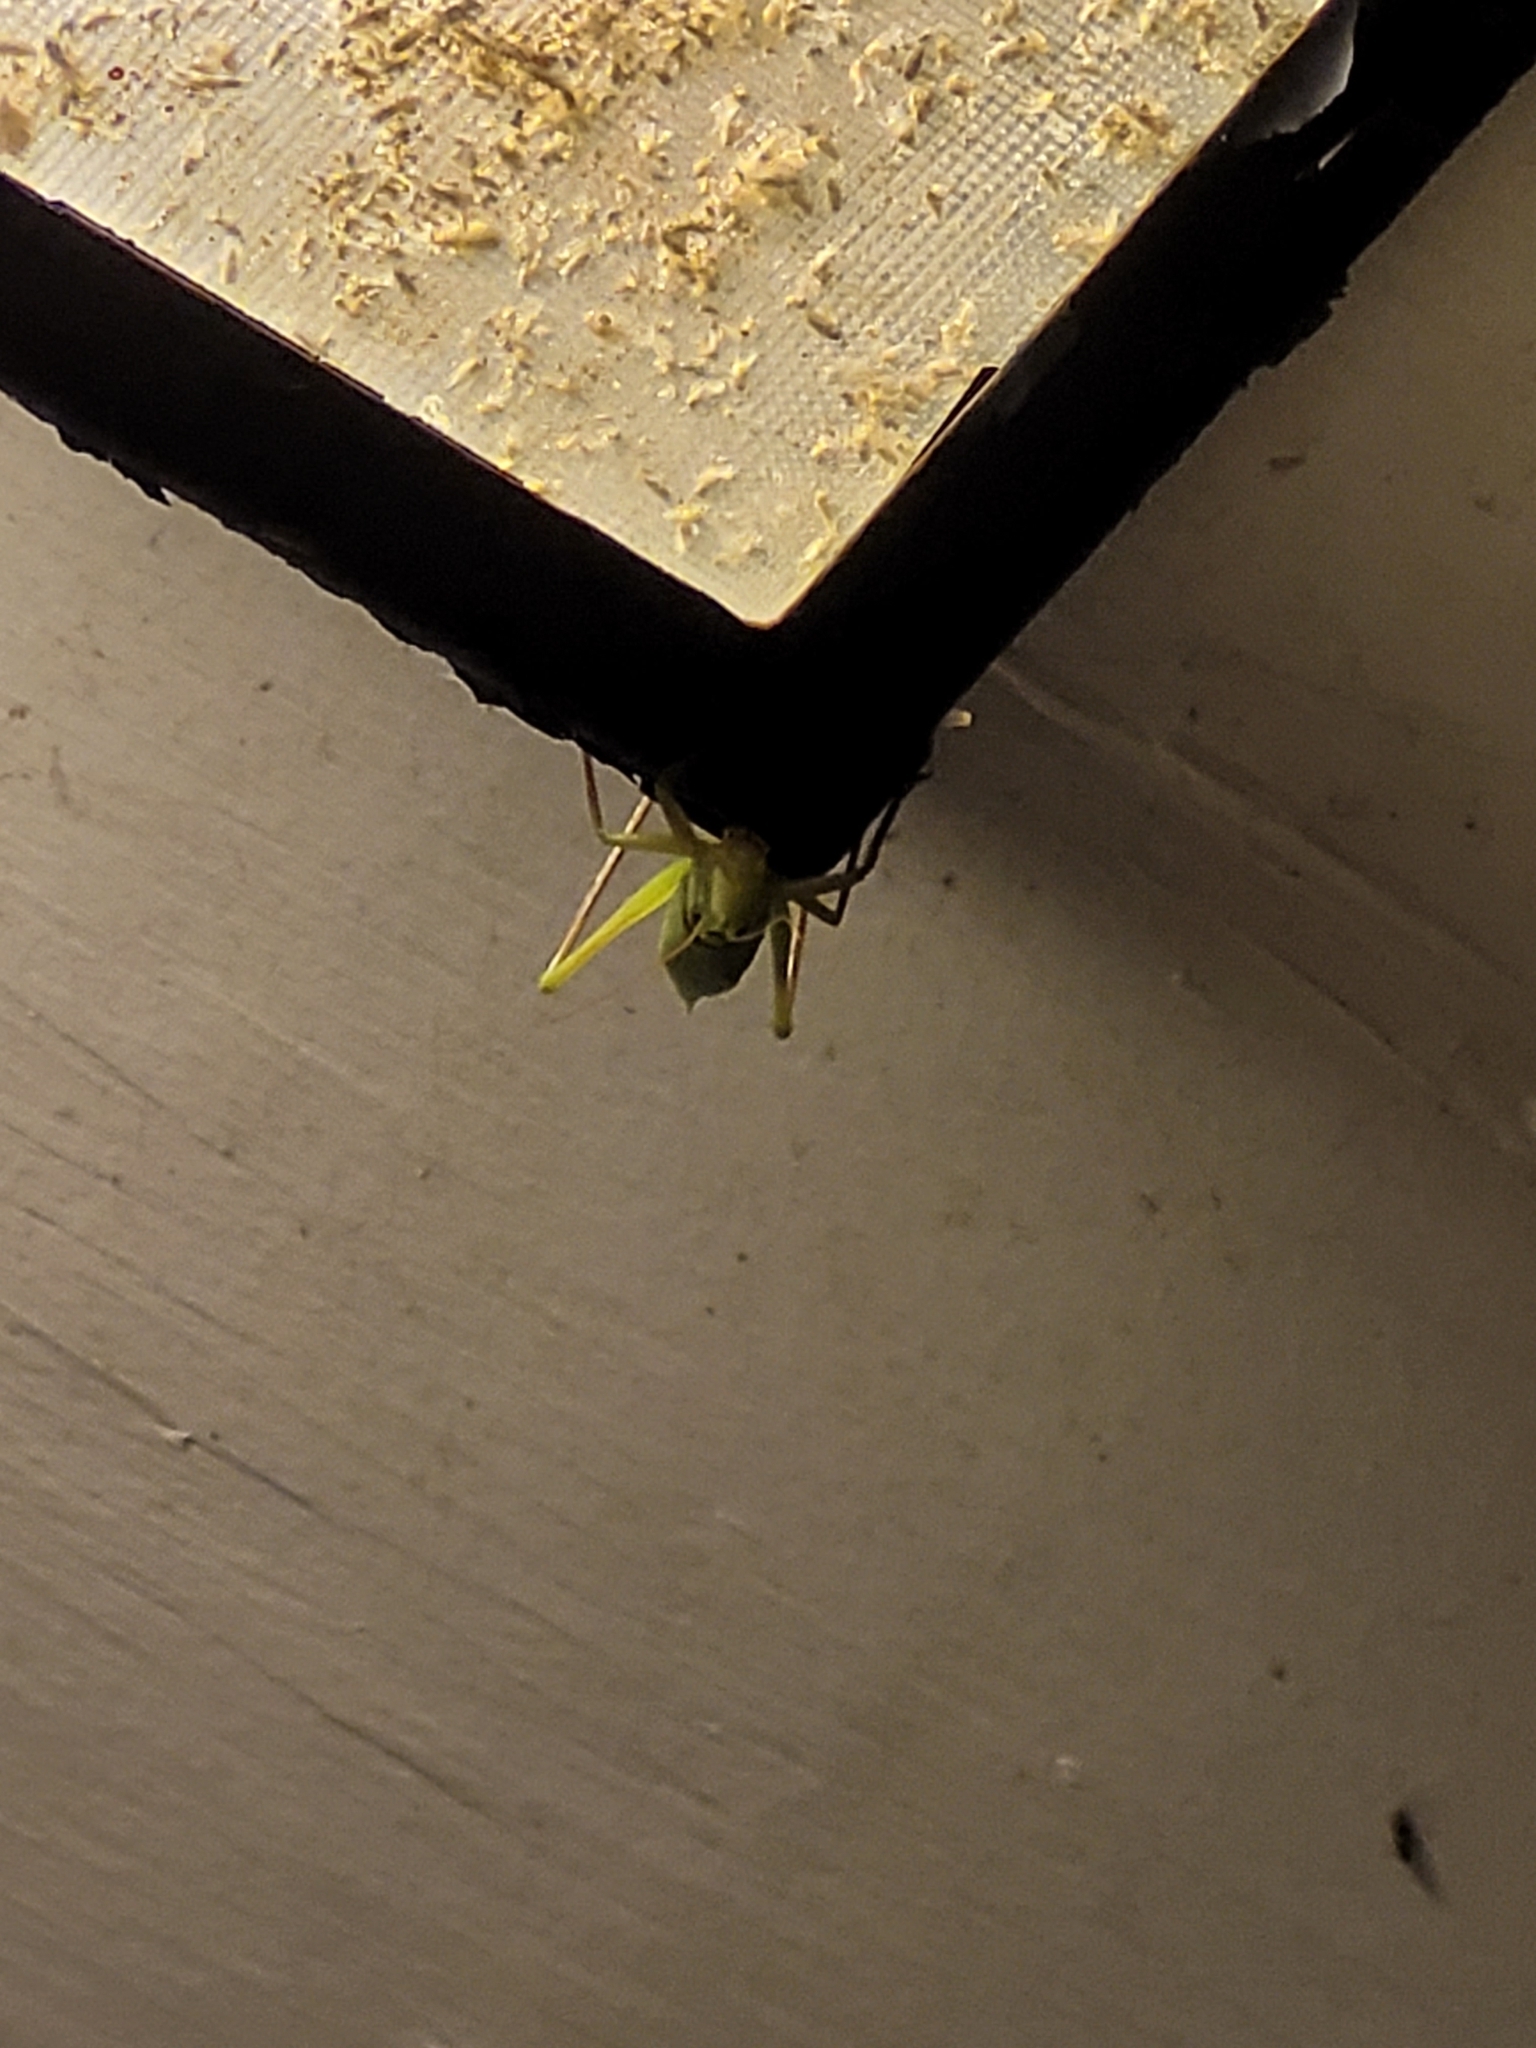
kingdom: Animalia
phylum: Arthropoda
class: Insecta
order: Orthoptera
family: Tettigoniidae
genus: Neoconocephalus
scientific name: Neoconocephalus triops
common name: Broad-tipped conehead
